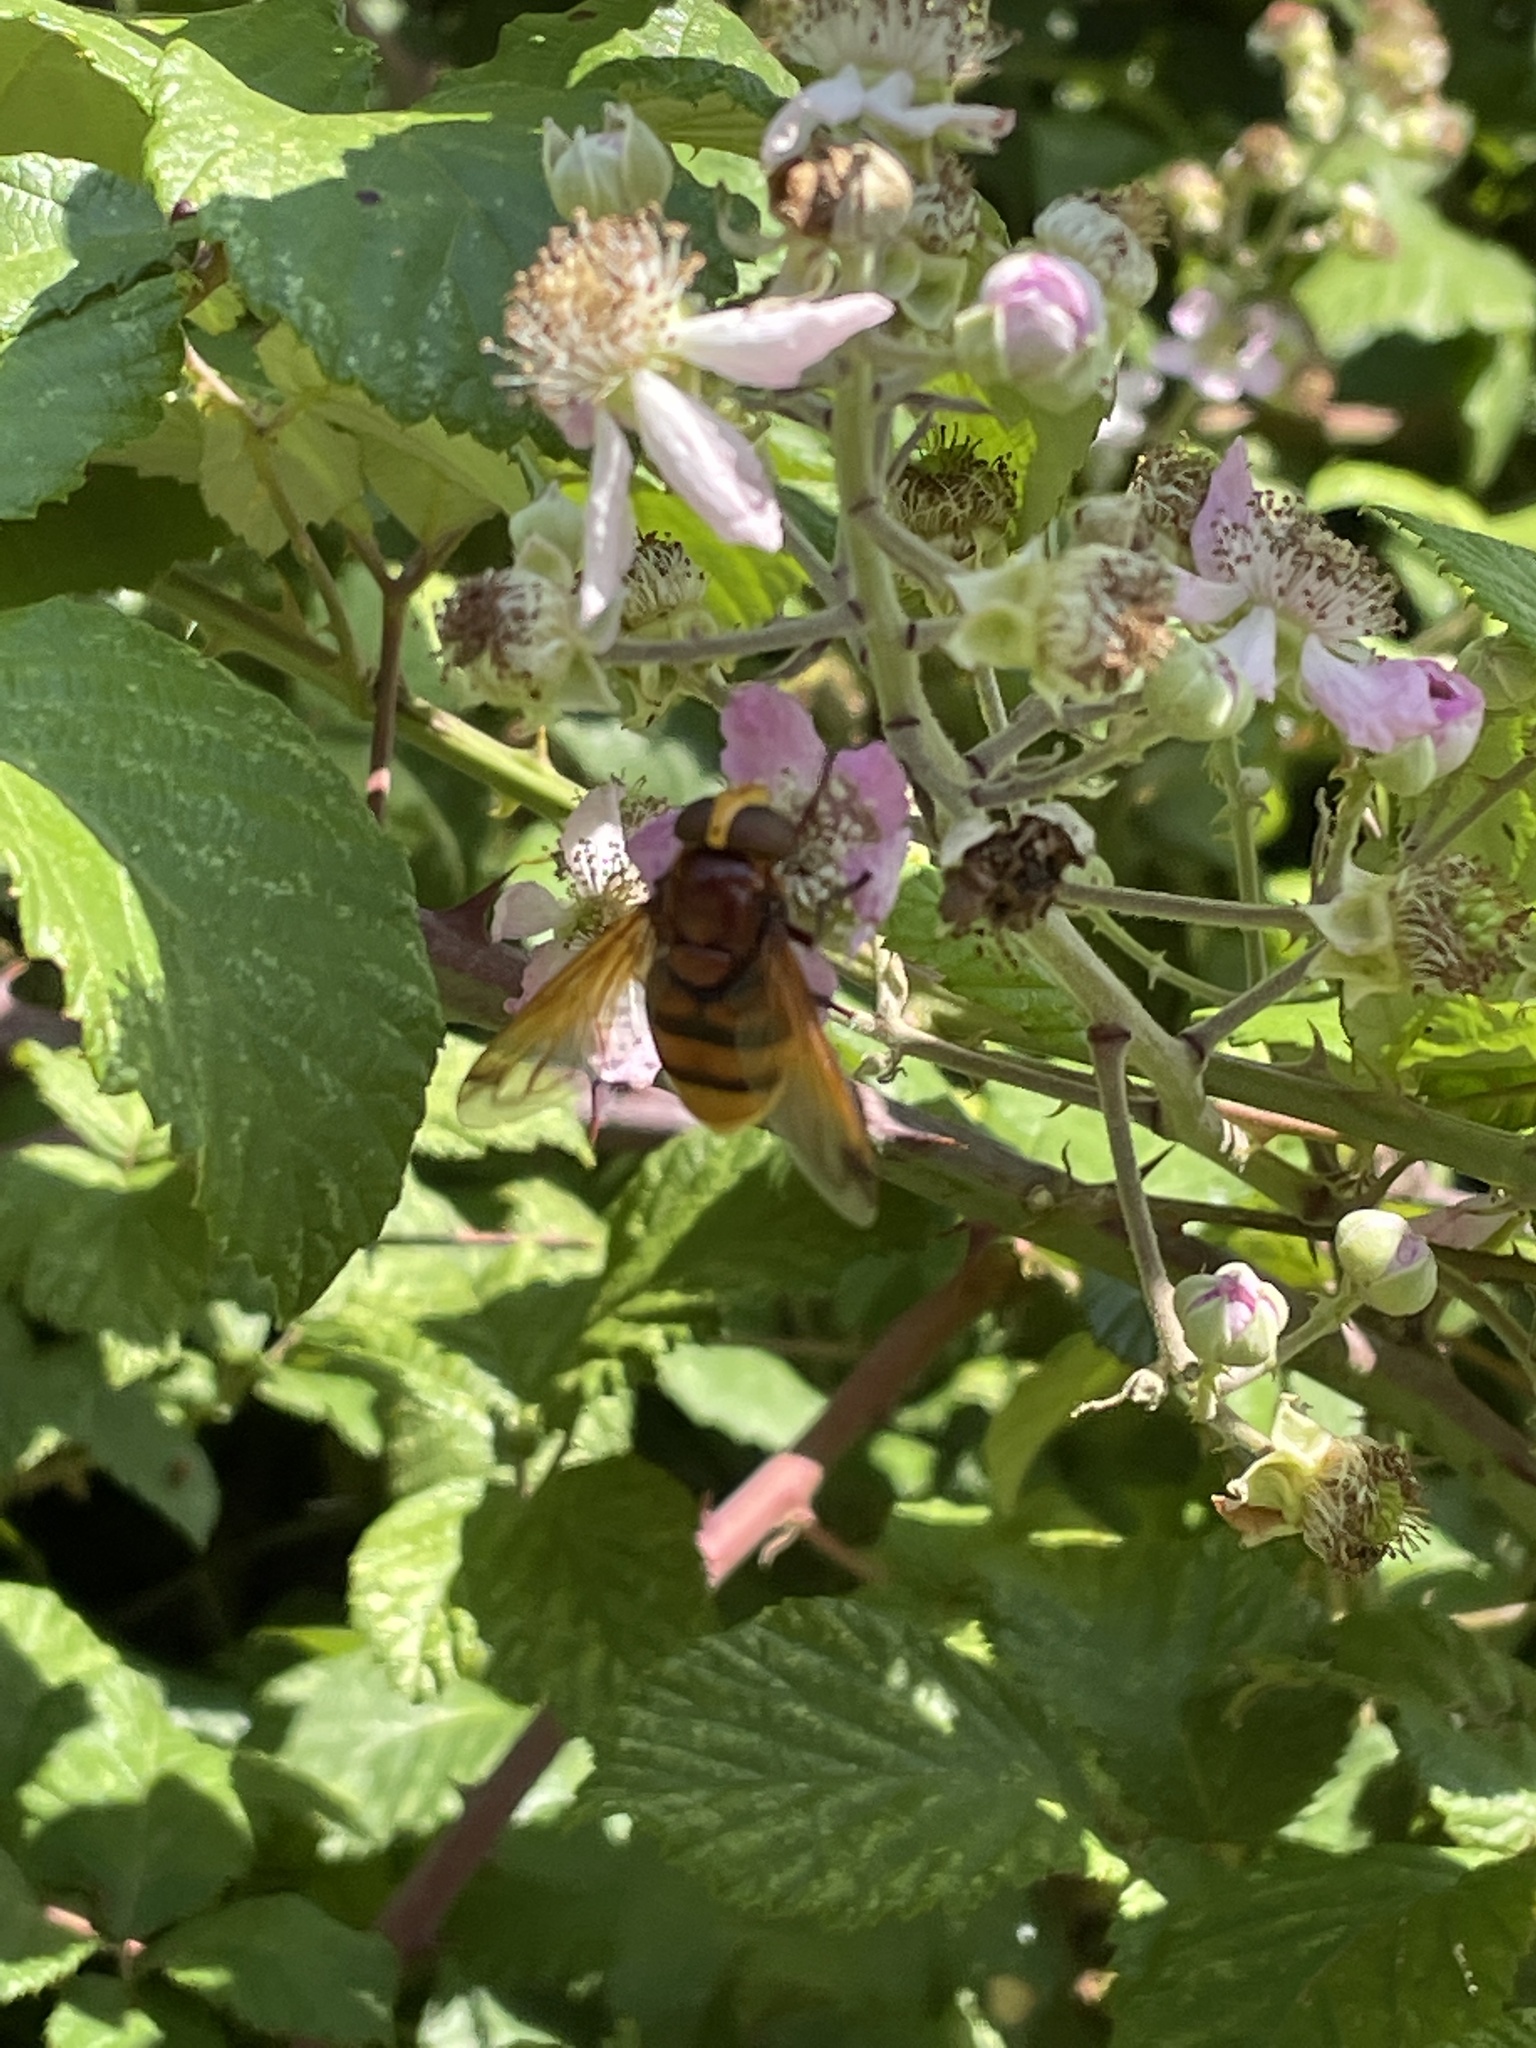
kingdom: Animalia
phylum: Arthropoda
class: Insecta
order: Diptera
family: Syrphidae
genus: Volucella
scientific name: Volucella zonaria
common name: Hornet hoverfly
